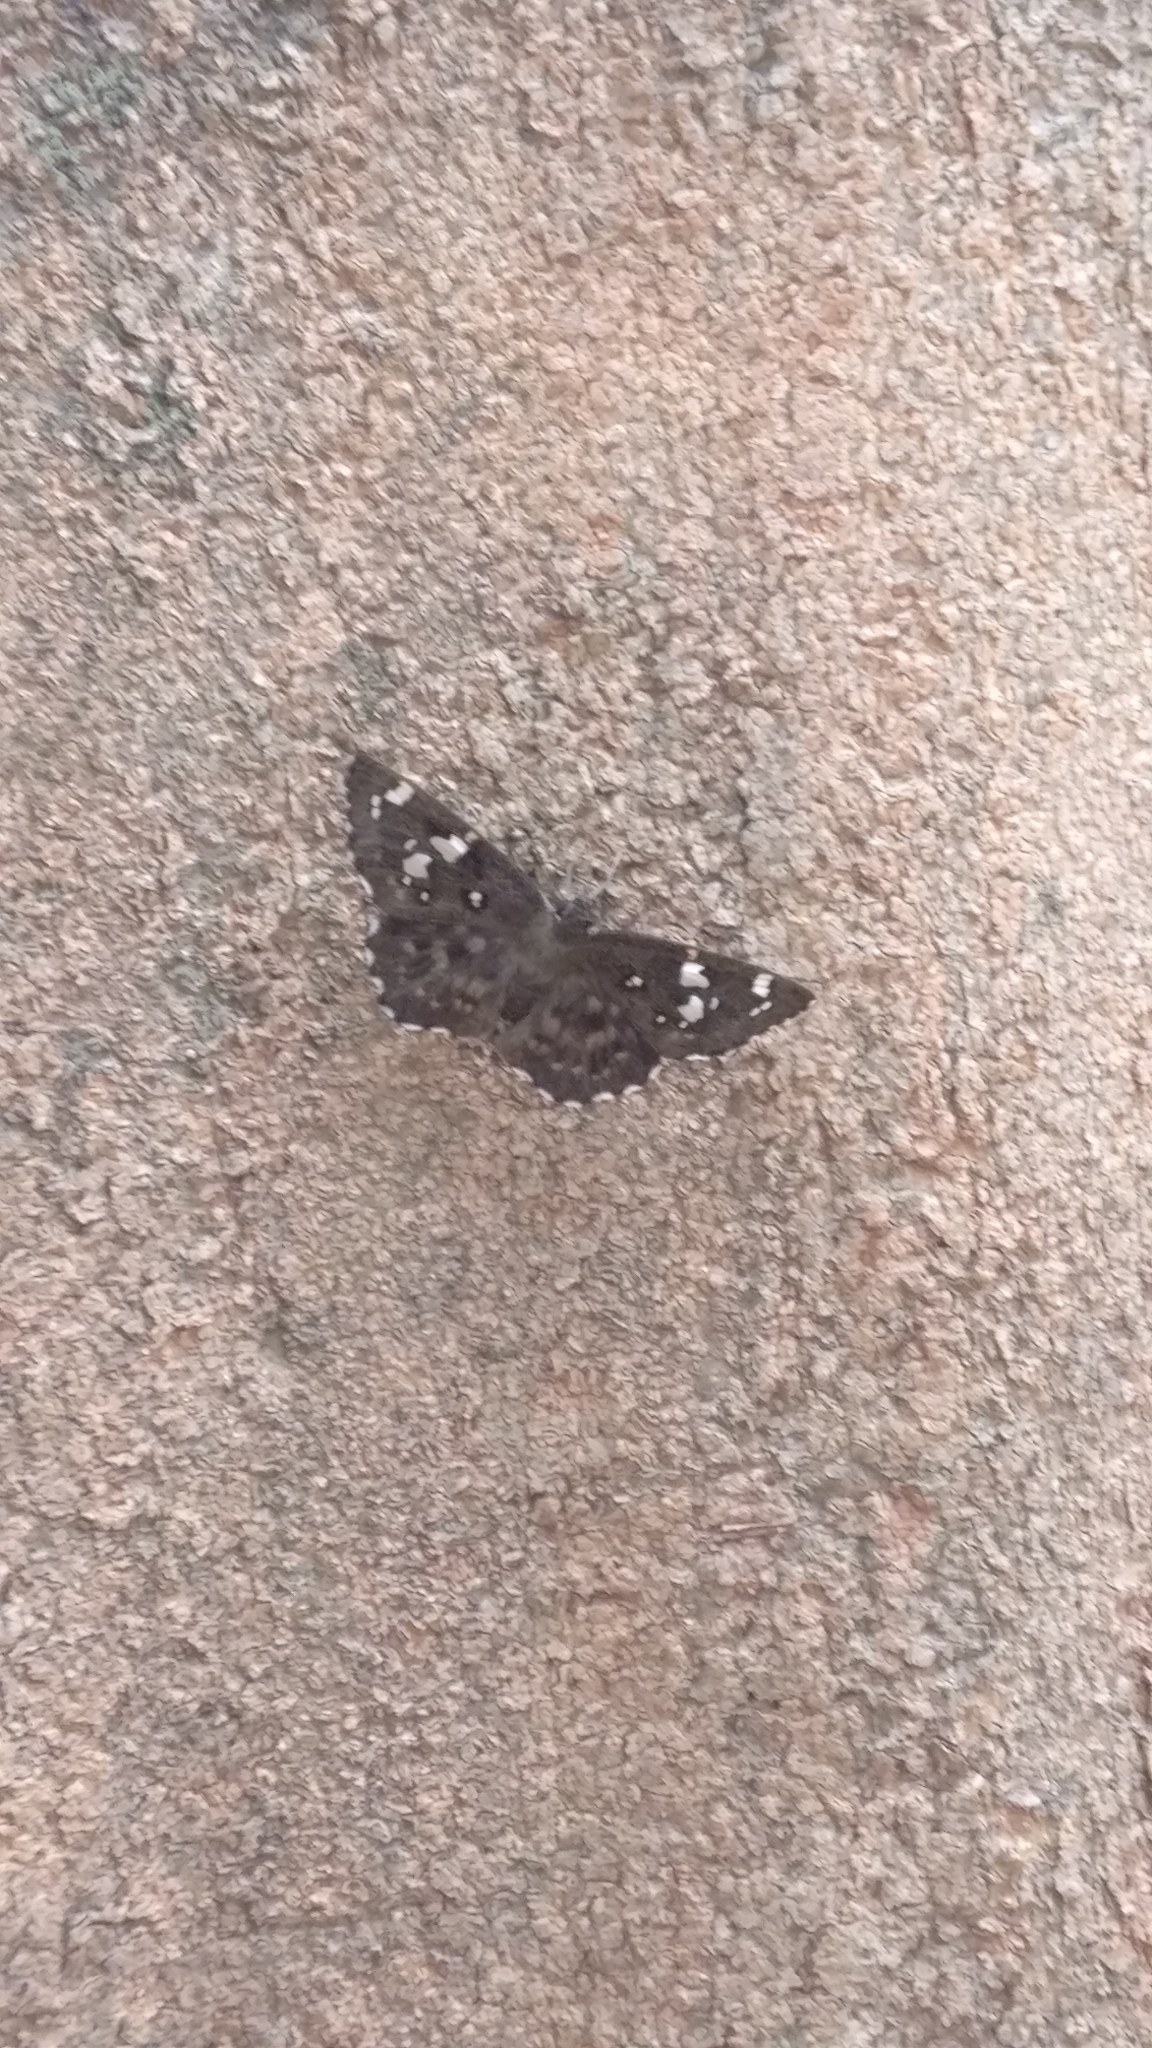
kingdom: Animalia
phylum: Arthropoda
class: Insecta
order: Lepidoptera
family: Hesperiidae
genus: Celaenorrhinus
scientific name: Celaenorrhinus ambareesa
